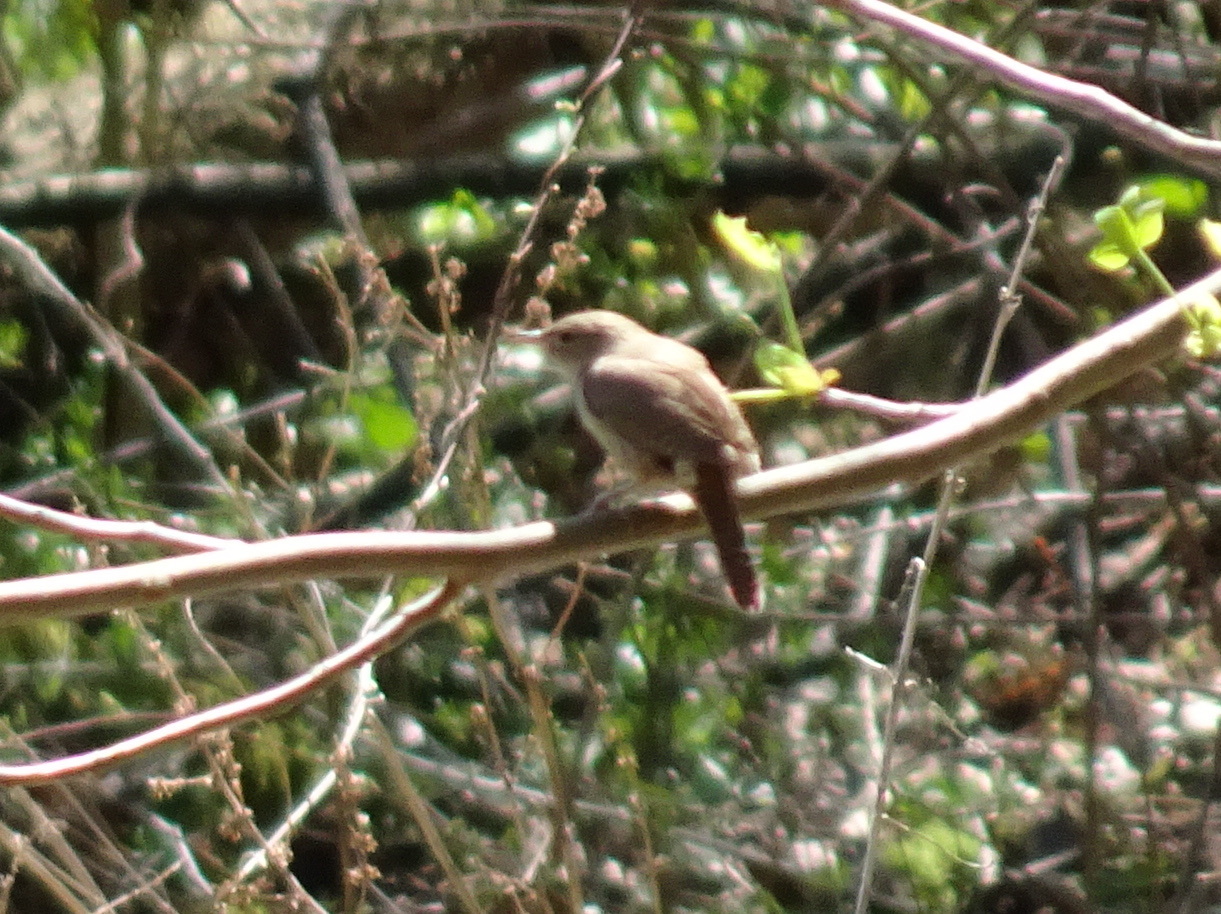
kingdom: Animalia
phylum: Chordata
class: Aves
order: Passeriformes
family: Troglodytidae
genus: Troglodytes
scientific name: Troglodytes aedon
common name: House wren
